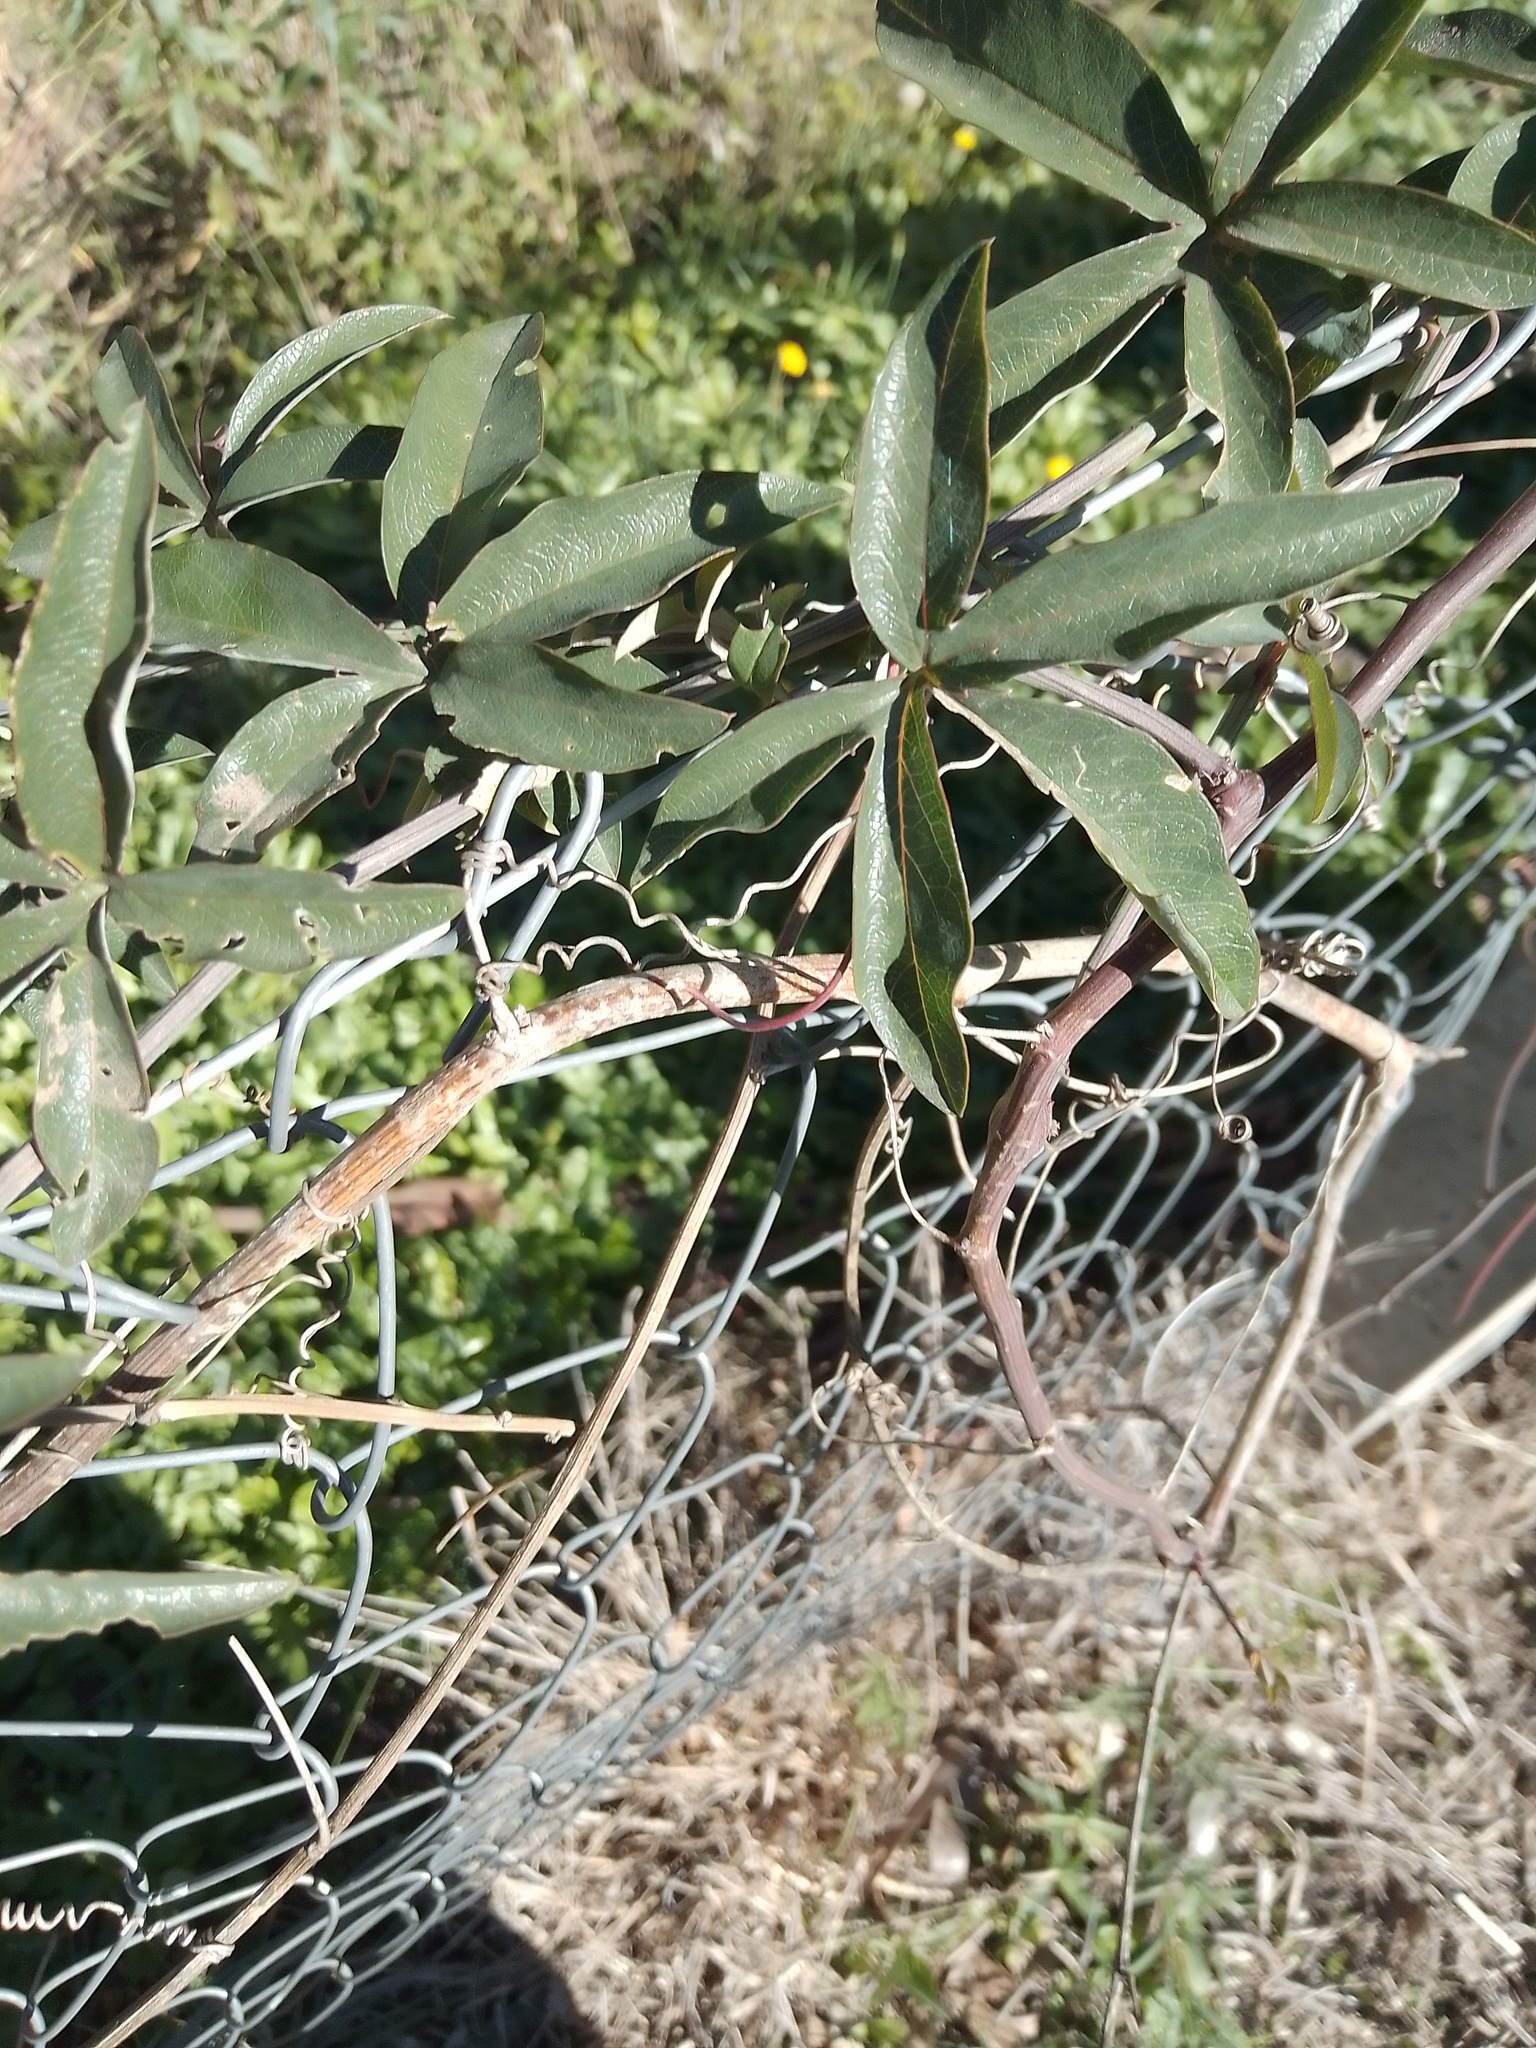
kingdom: Plantae
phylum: Tracheophyta
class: Magnoliopsida
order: Malpighiales
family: Passifloraceae
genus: Passiflora
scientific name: Passiflora caerulea
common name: Blue passionflower
